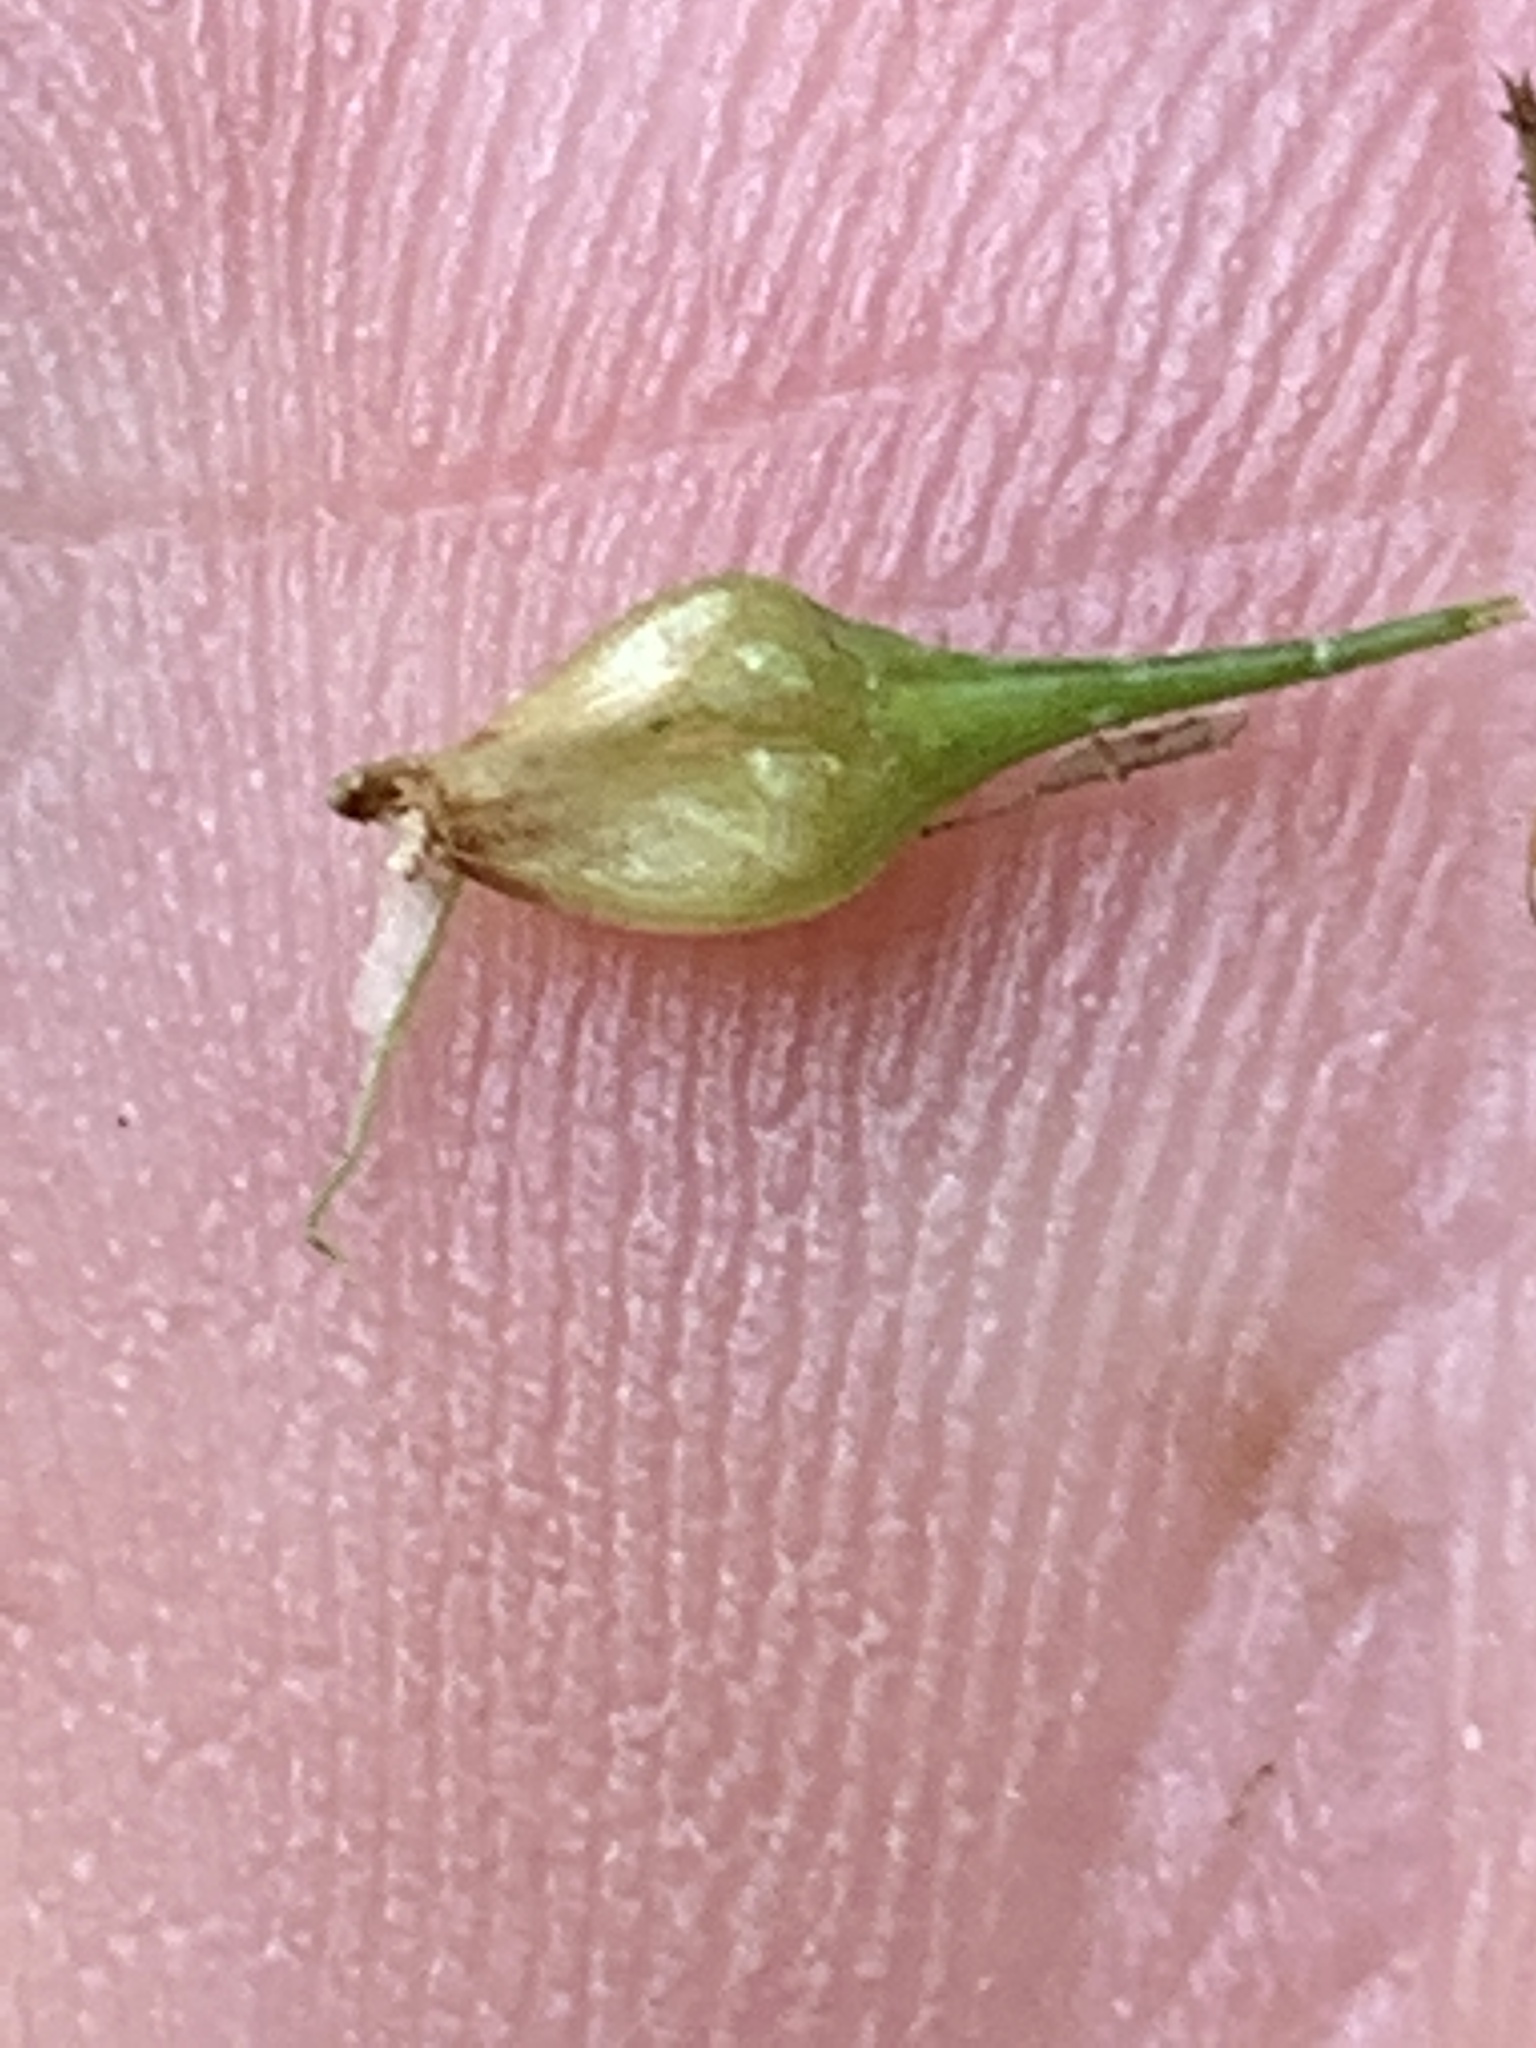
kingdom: Plantae
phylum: Tracheophyta
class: Liliopsida
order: Poales
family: Cyperaceae
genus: Carex
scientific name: Carex lurida
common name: Sallow sedge
